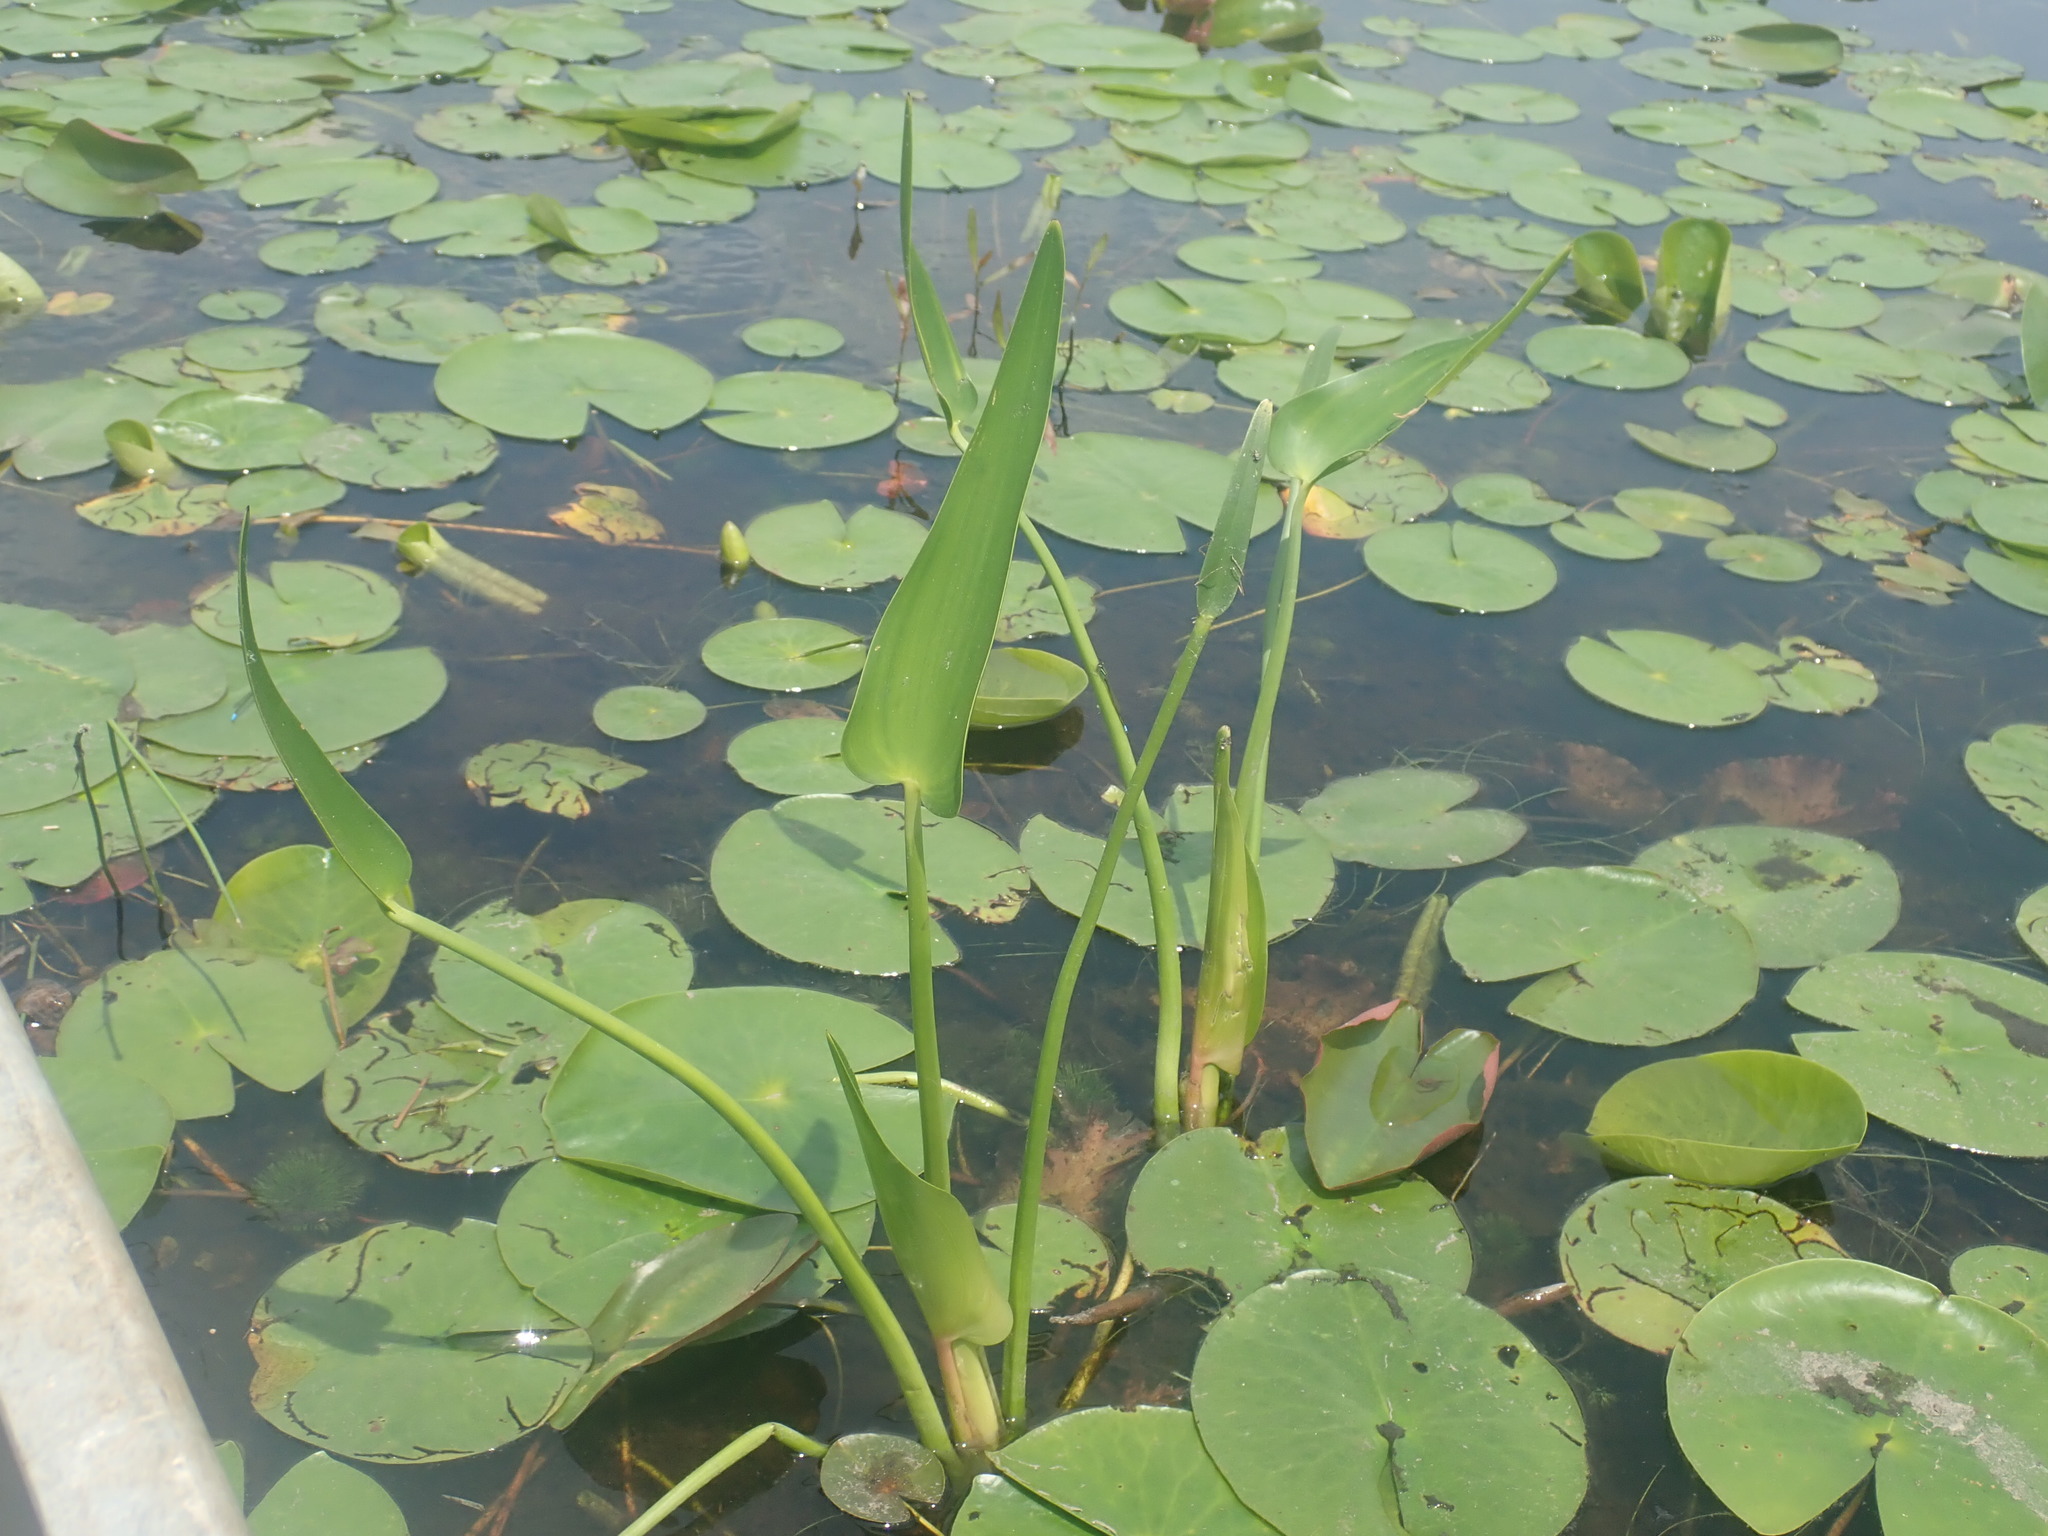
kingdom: Plantae
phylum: Tracheophyta
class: Liliopsida
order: Commelinales
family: Pontederiaceae
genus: Pontederia
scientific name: Pontederia cordata
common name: Pickerelweed
